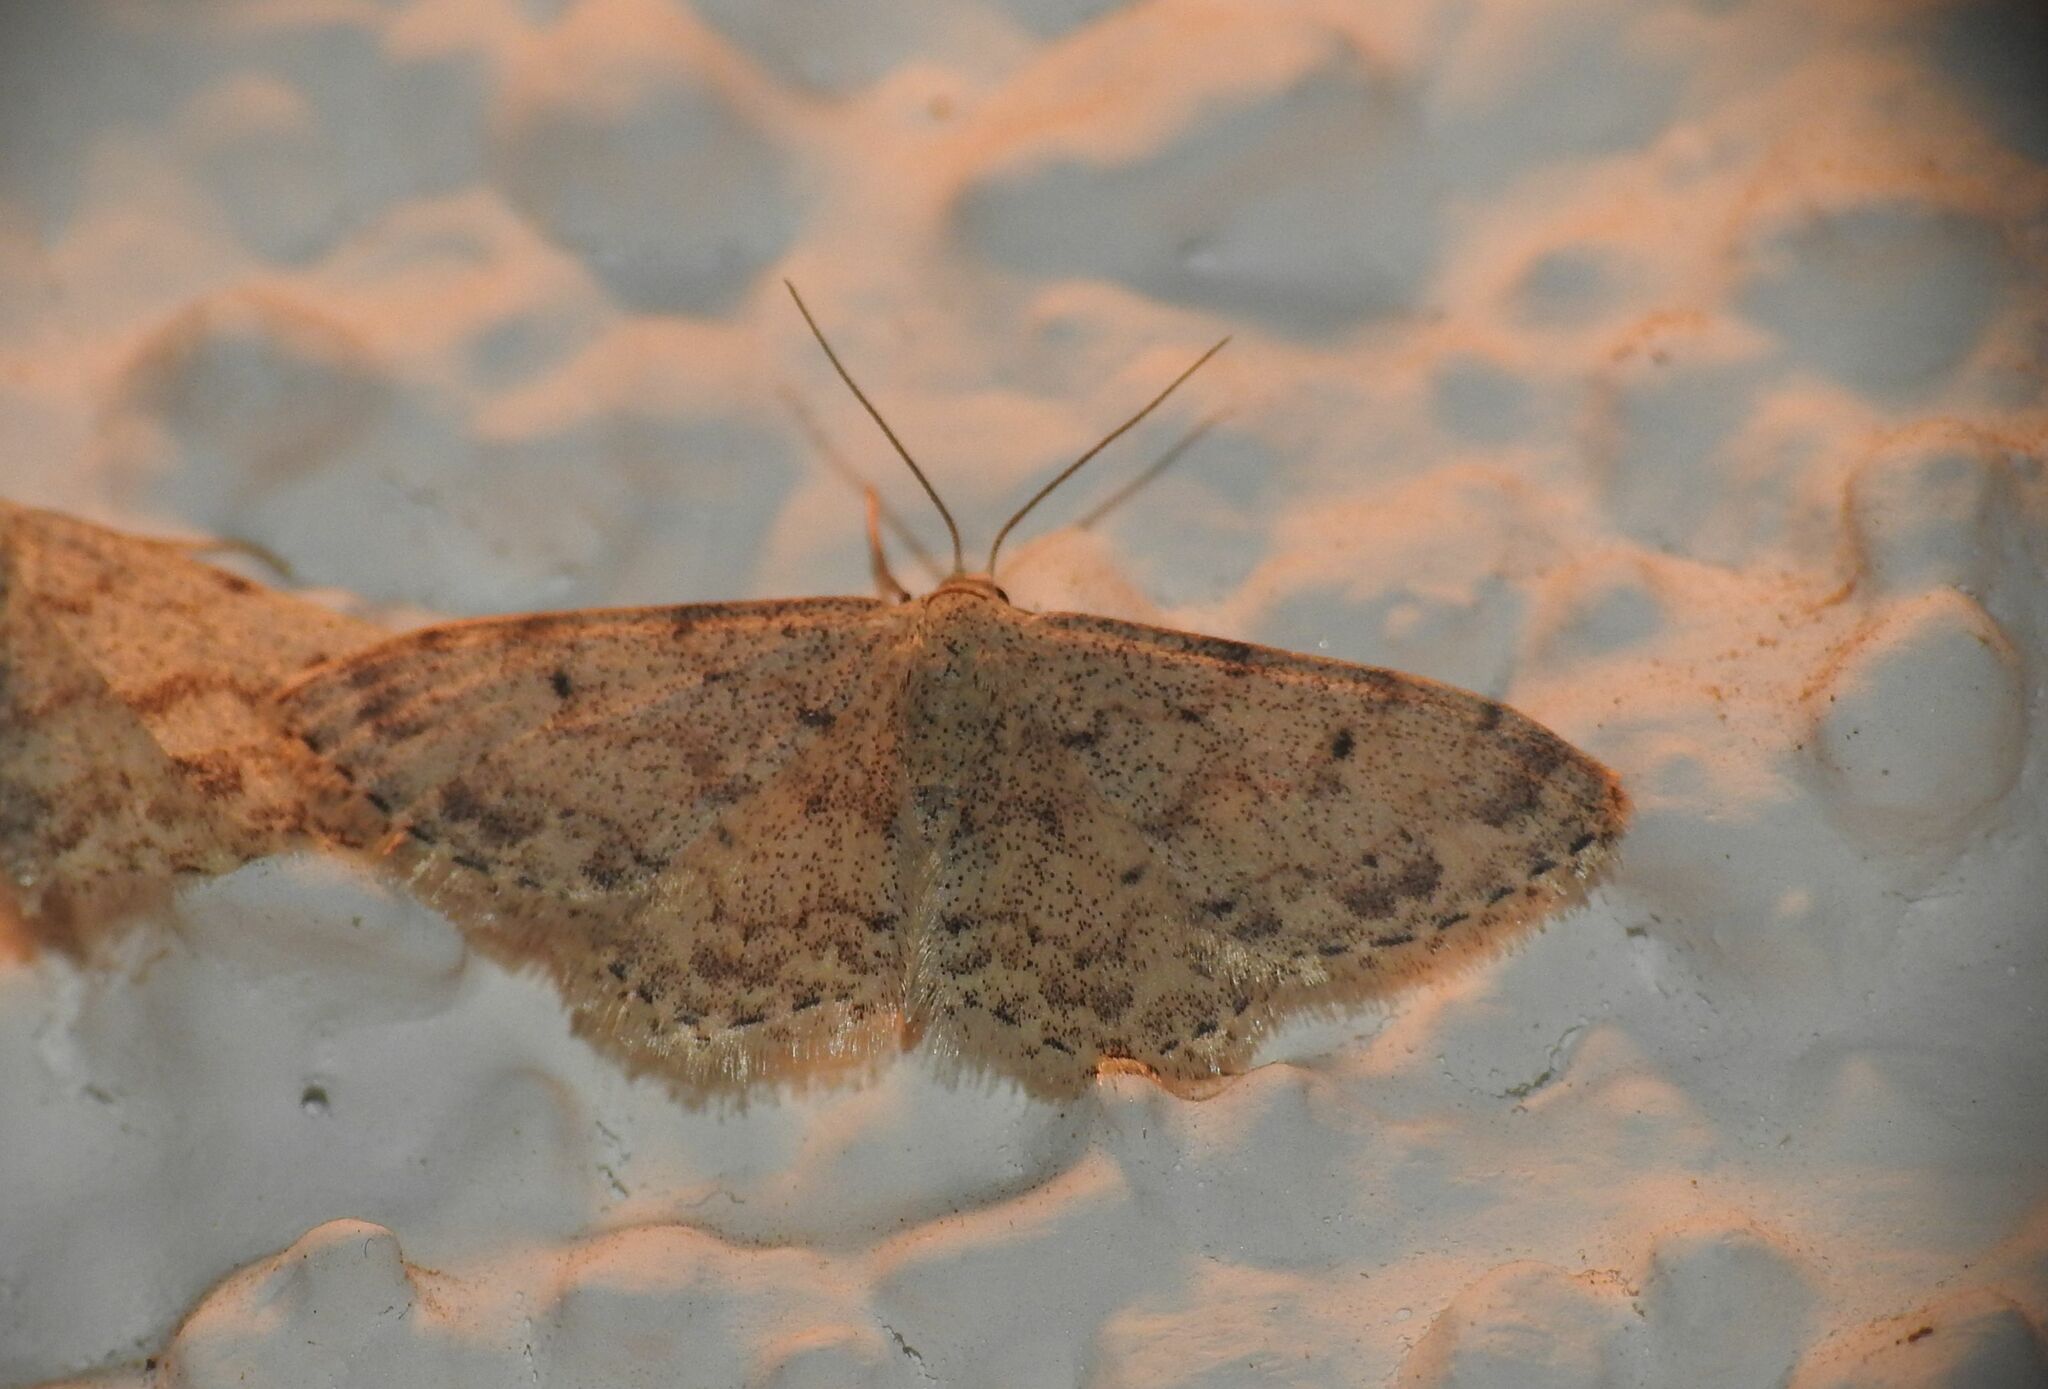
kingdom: Animalia
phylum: Arthropoda
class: Insecta
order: Lepidoptera
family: Geometridae
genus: Idaea
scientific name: Idaea camparia
